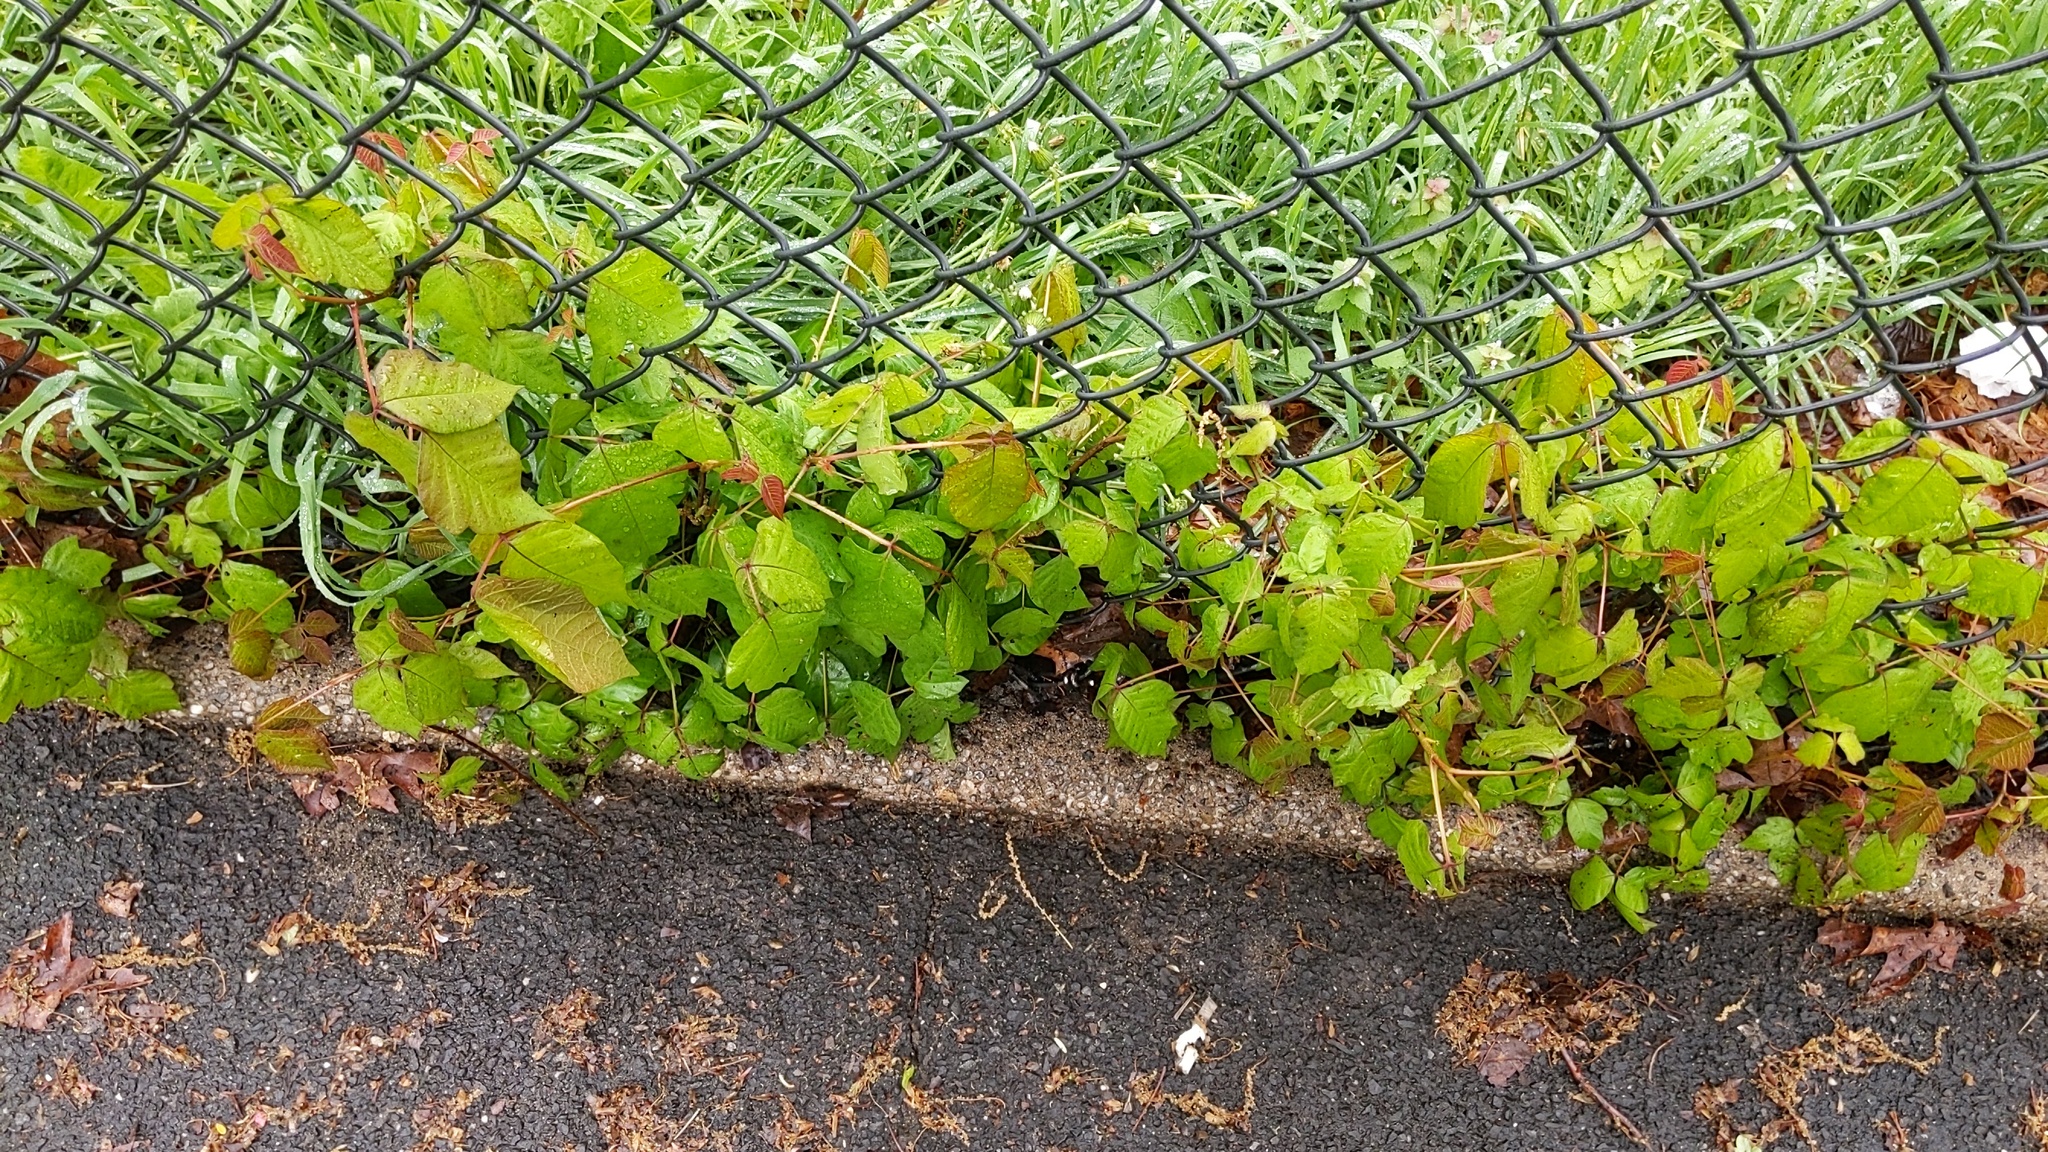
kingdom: Plantae
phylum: Tracheophyta
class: Magnoliopsida
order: Sapindales
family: Anacardiaceae
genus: Toxicodendron
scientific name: Toxicodendron radicans
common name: Poison ivy
